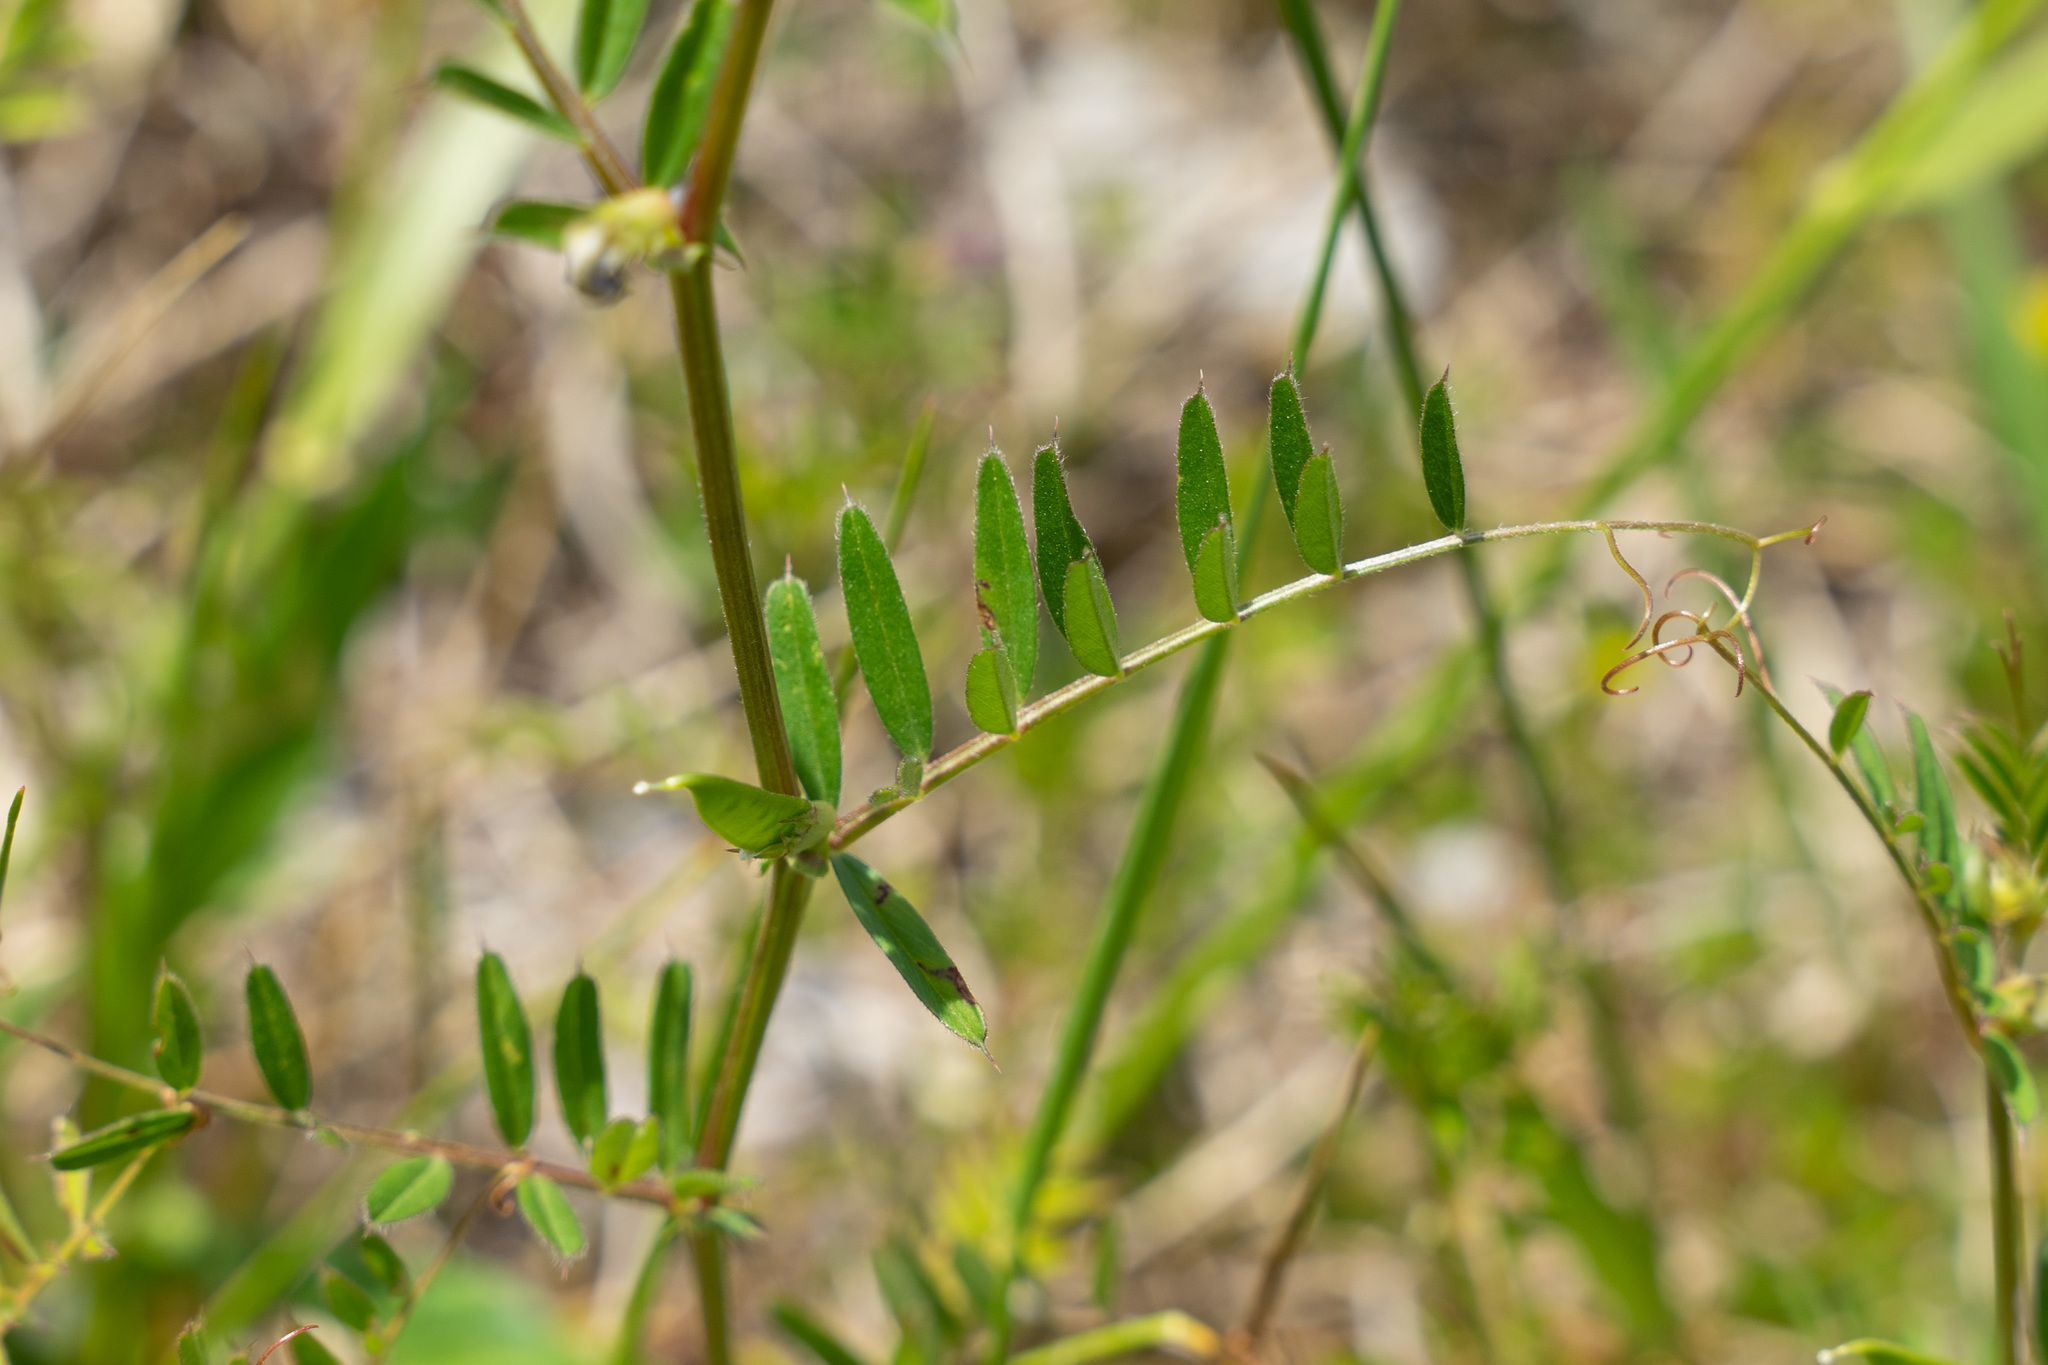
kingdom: Plantae
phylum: Tracheophyta
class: Magnoliopsida
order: Fabales
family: Fabaceae
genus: Vicia
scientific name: Vicia sativa
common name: Garden vetch
